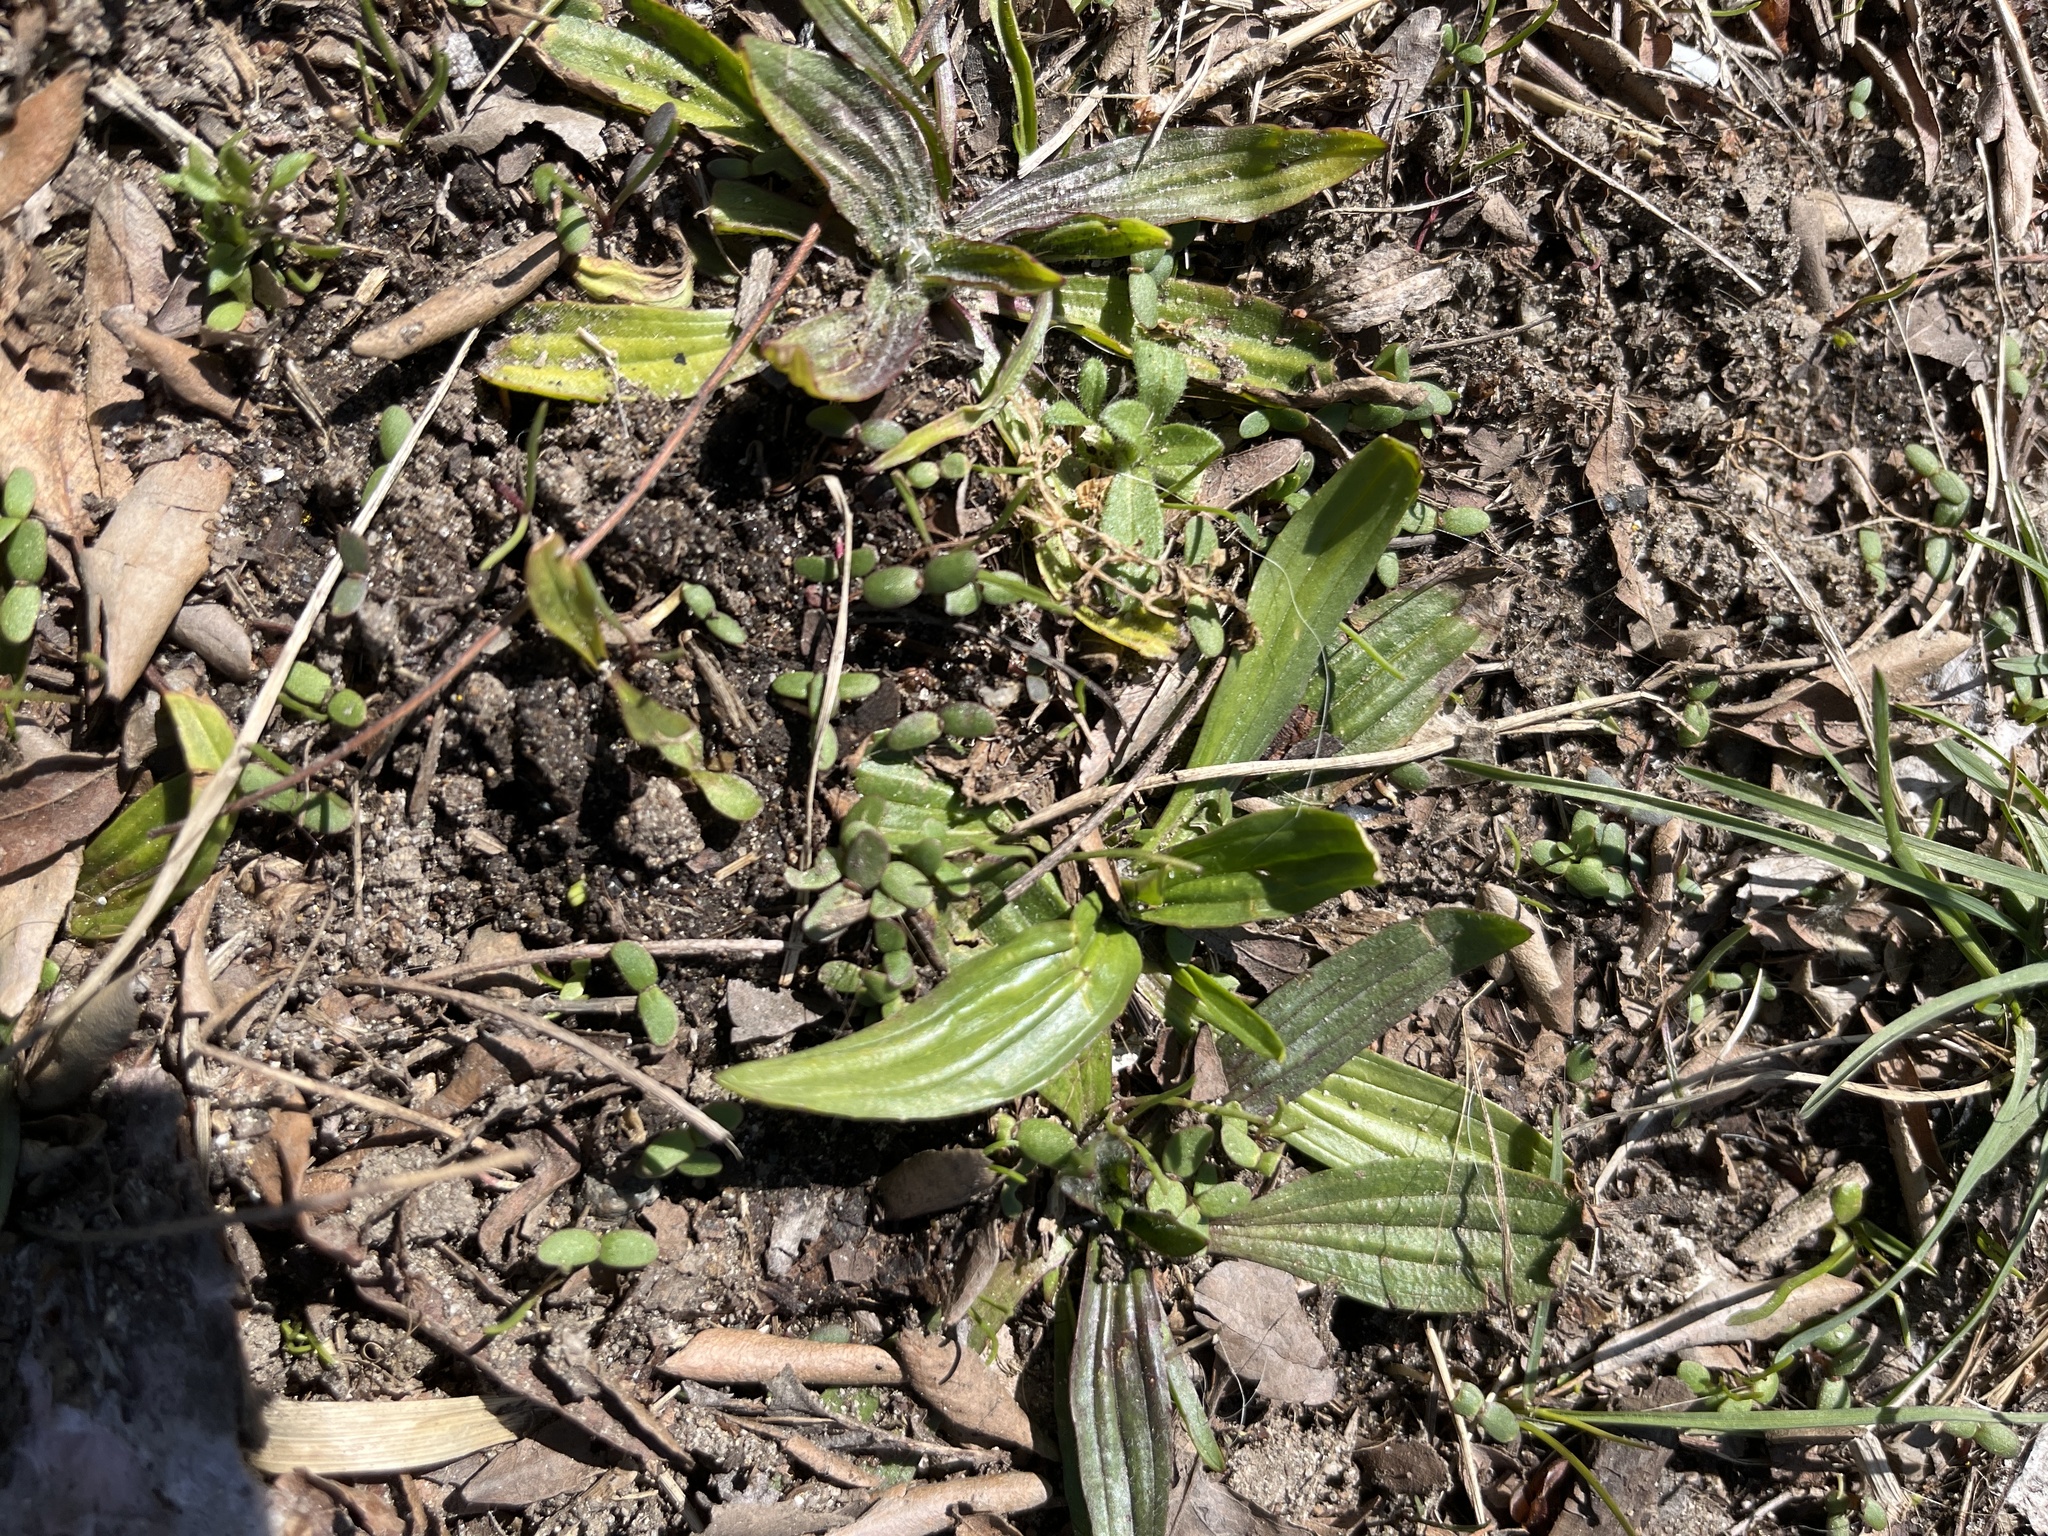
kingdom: Plantae
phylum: Tracheophyta
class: Magnoliopsida
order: Lamiales
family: Plantaginaceae
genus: Plantago
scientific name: Plantago lanceolata
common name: Ribwort plantain
